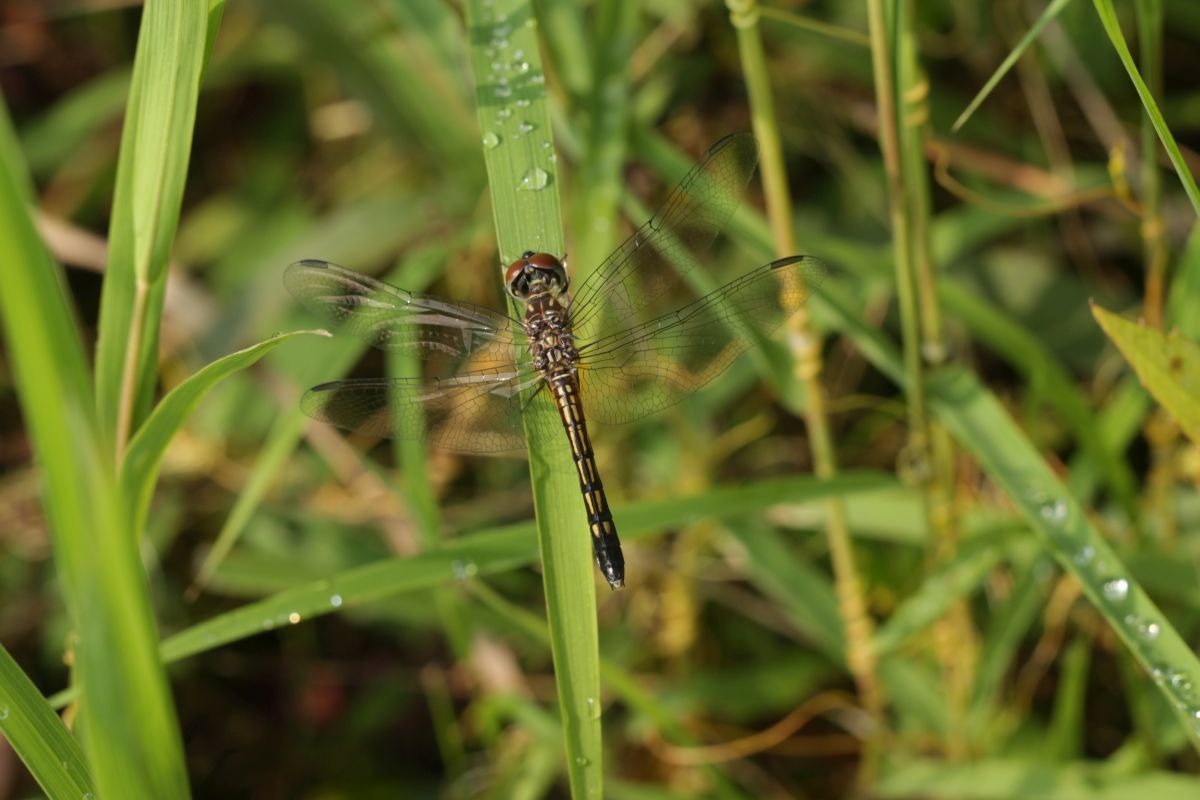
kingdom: Animalia
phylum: Arthropoda
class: Insecta
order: Odonata
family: Libellulidae
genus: Pachydiplax
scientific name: Pachydiplax longipennis
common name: Blue dasher
